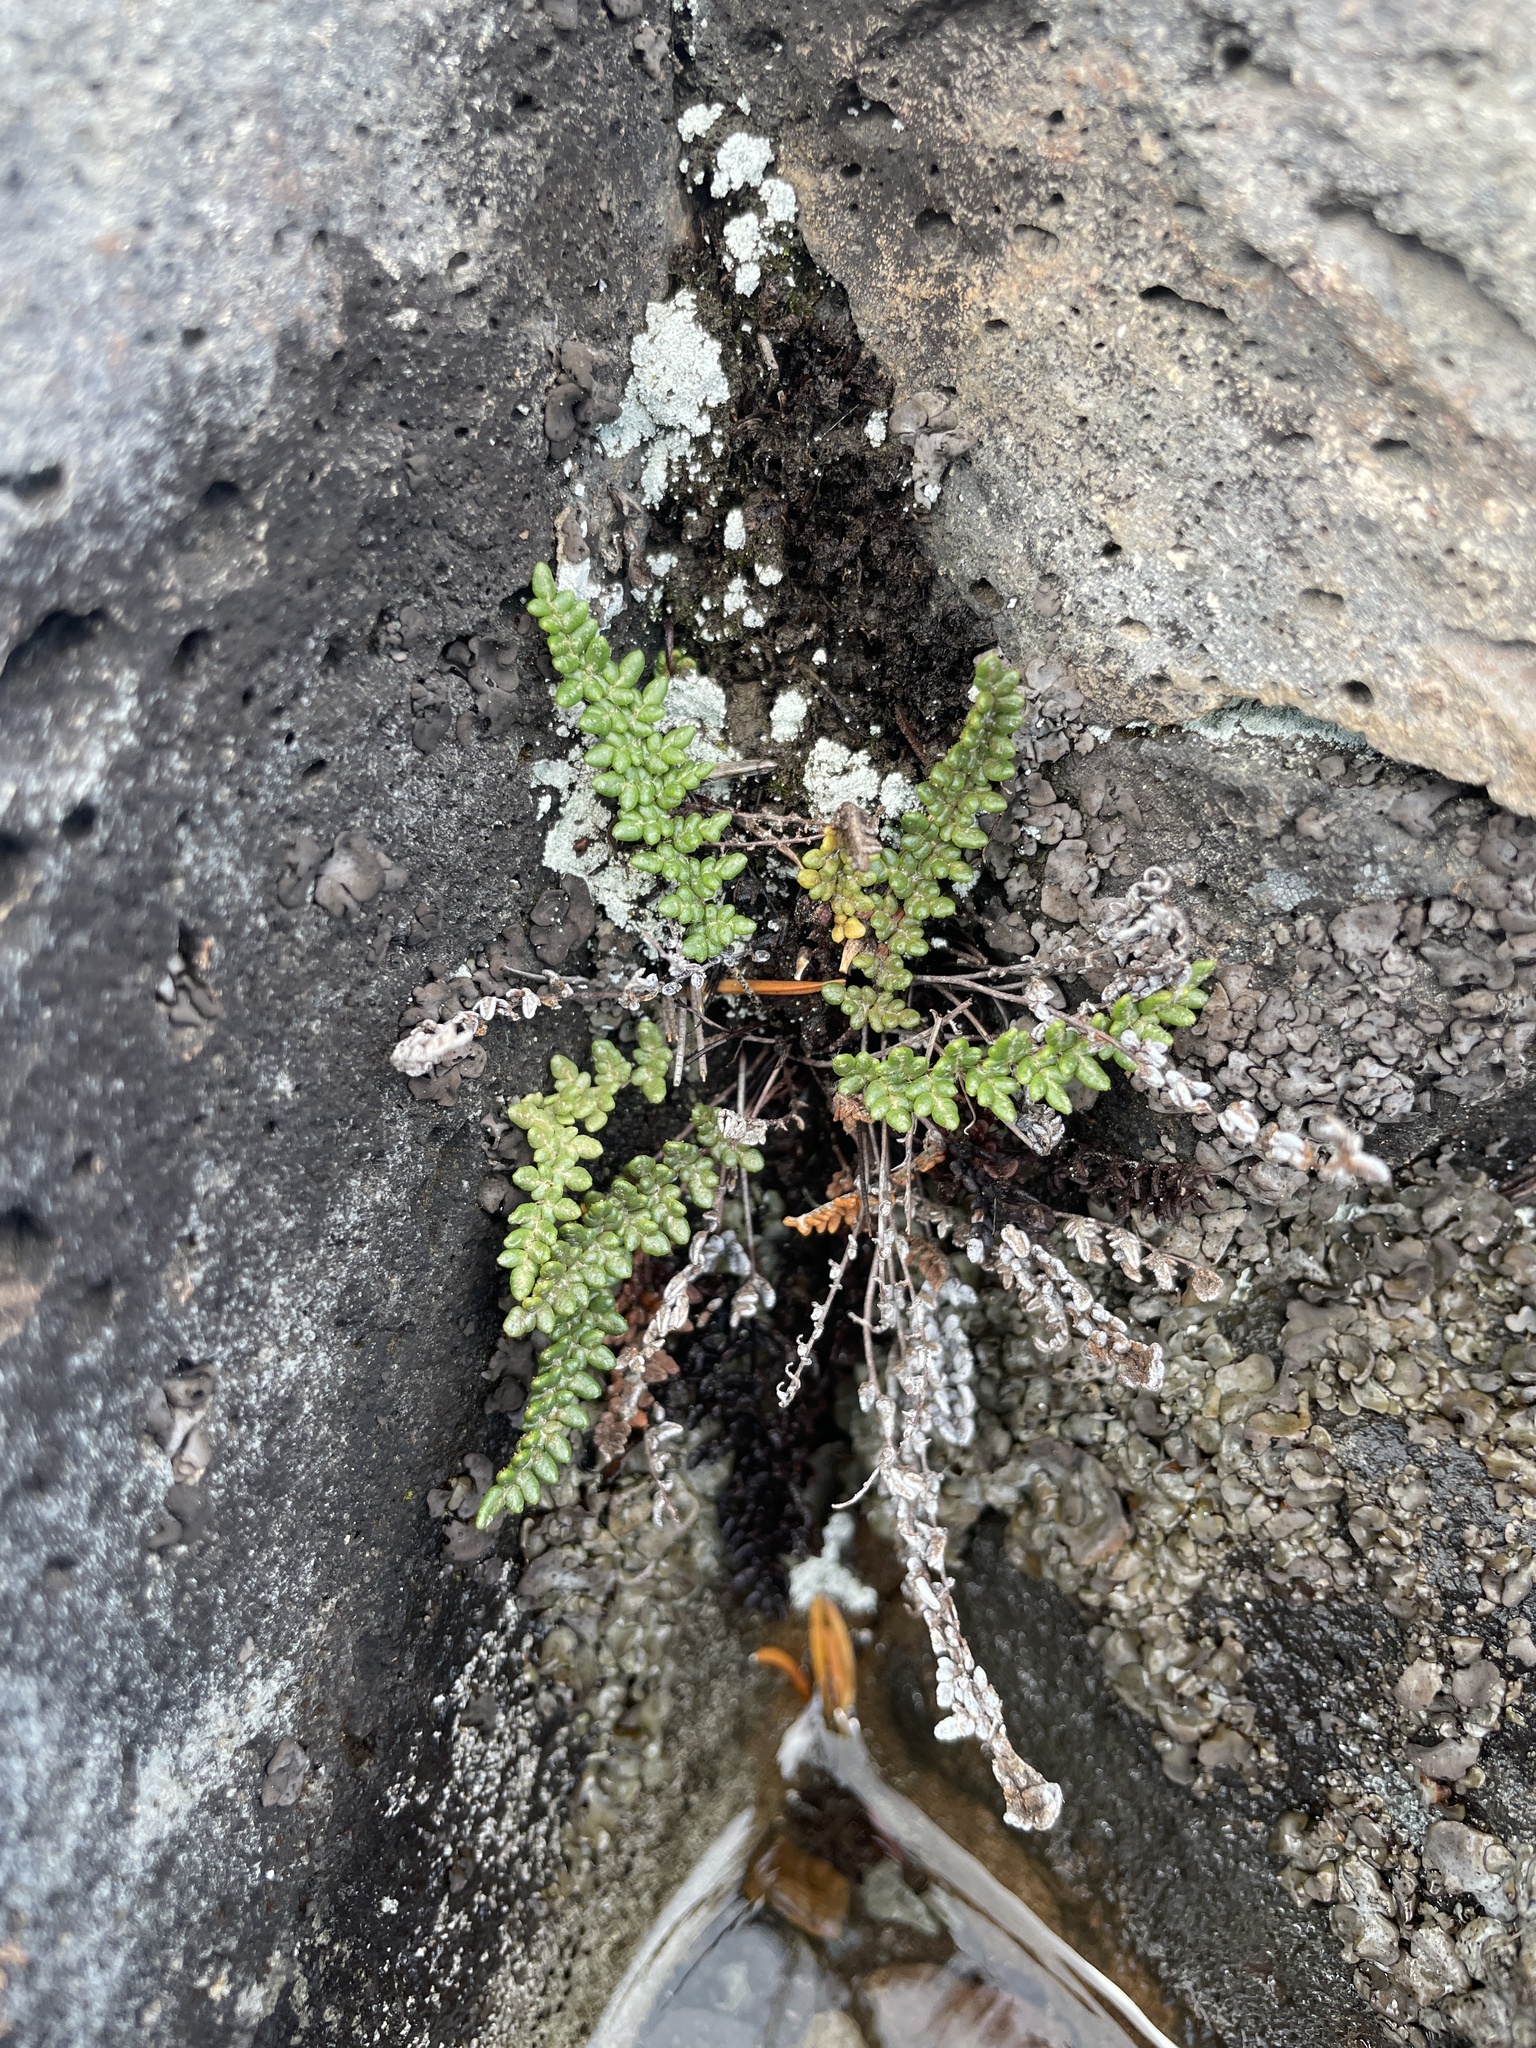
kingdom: Plantae
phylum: Tracheophyta
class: Polypodiopsida
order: Polypodiales
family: Pteridaceae
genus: Myriopteris
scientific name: Myriopteris gracillima
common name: Lace fern
